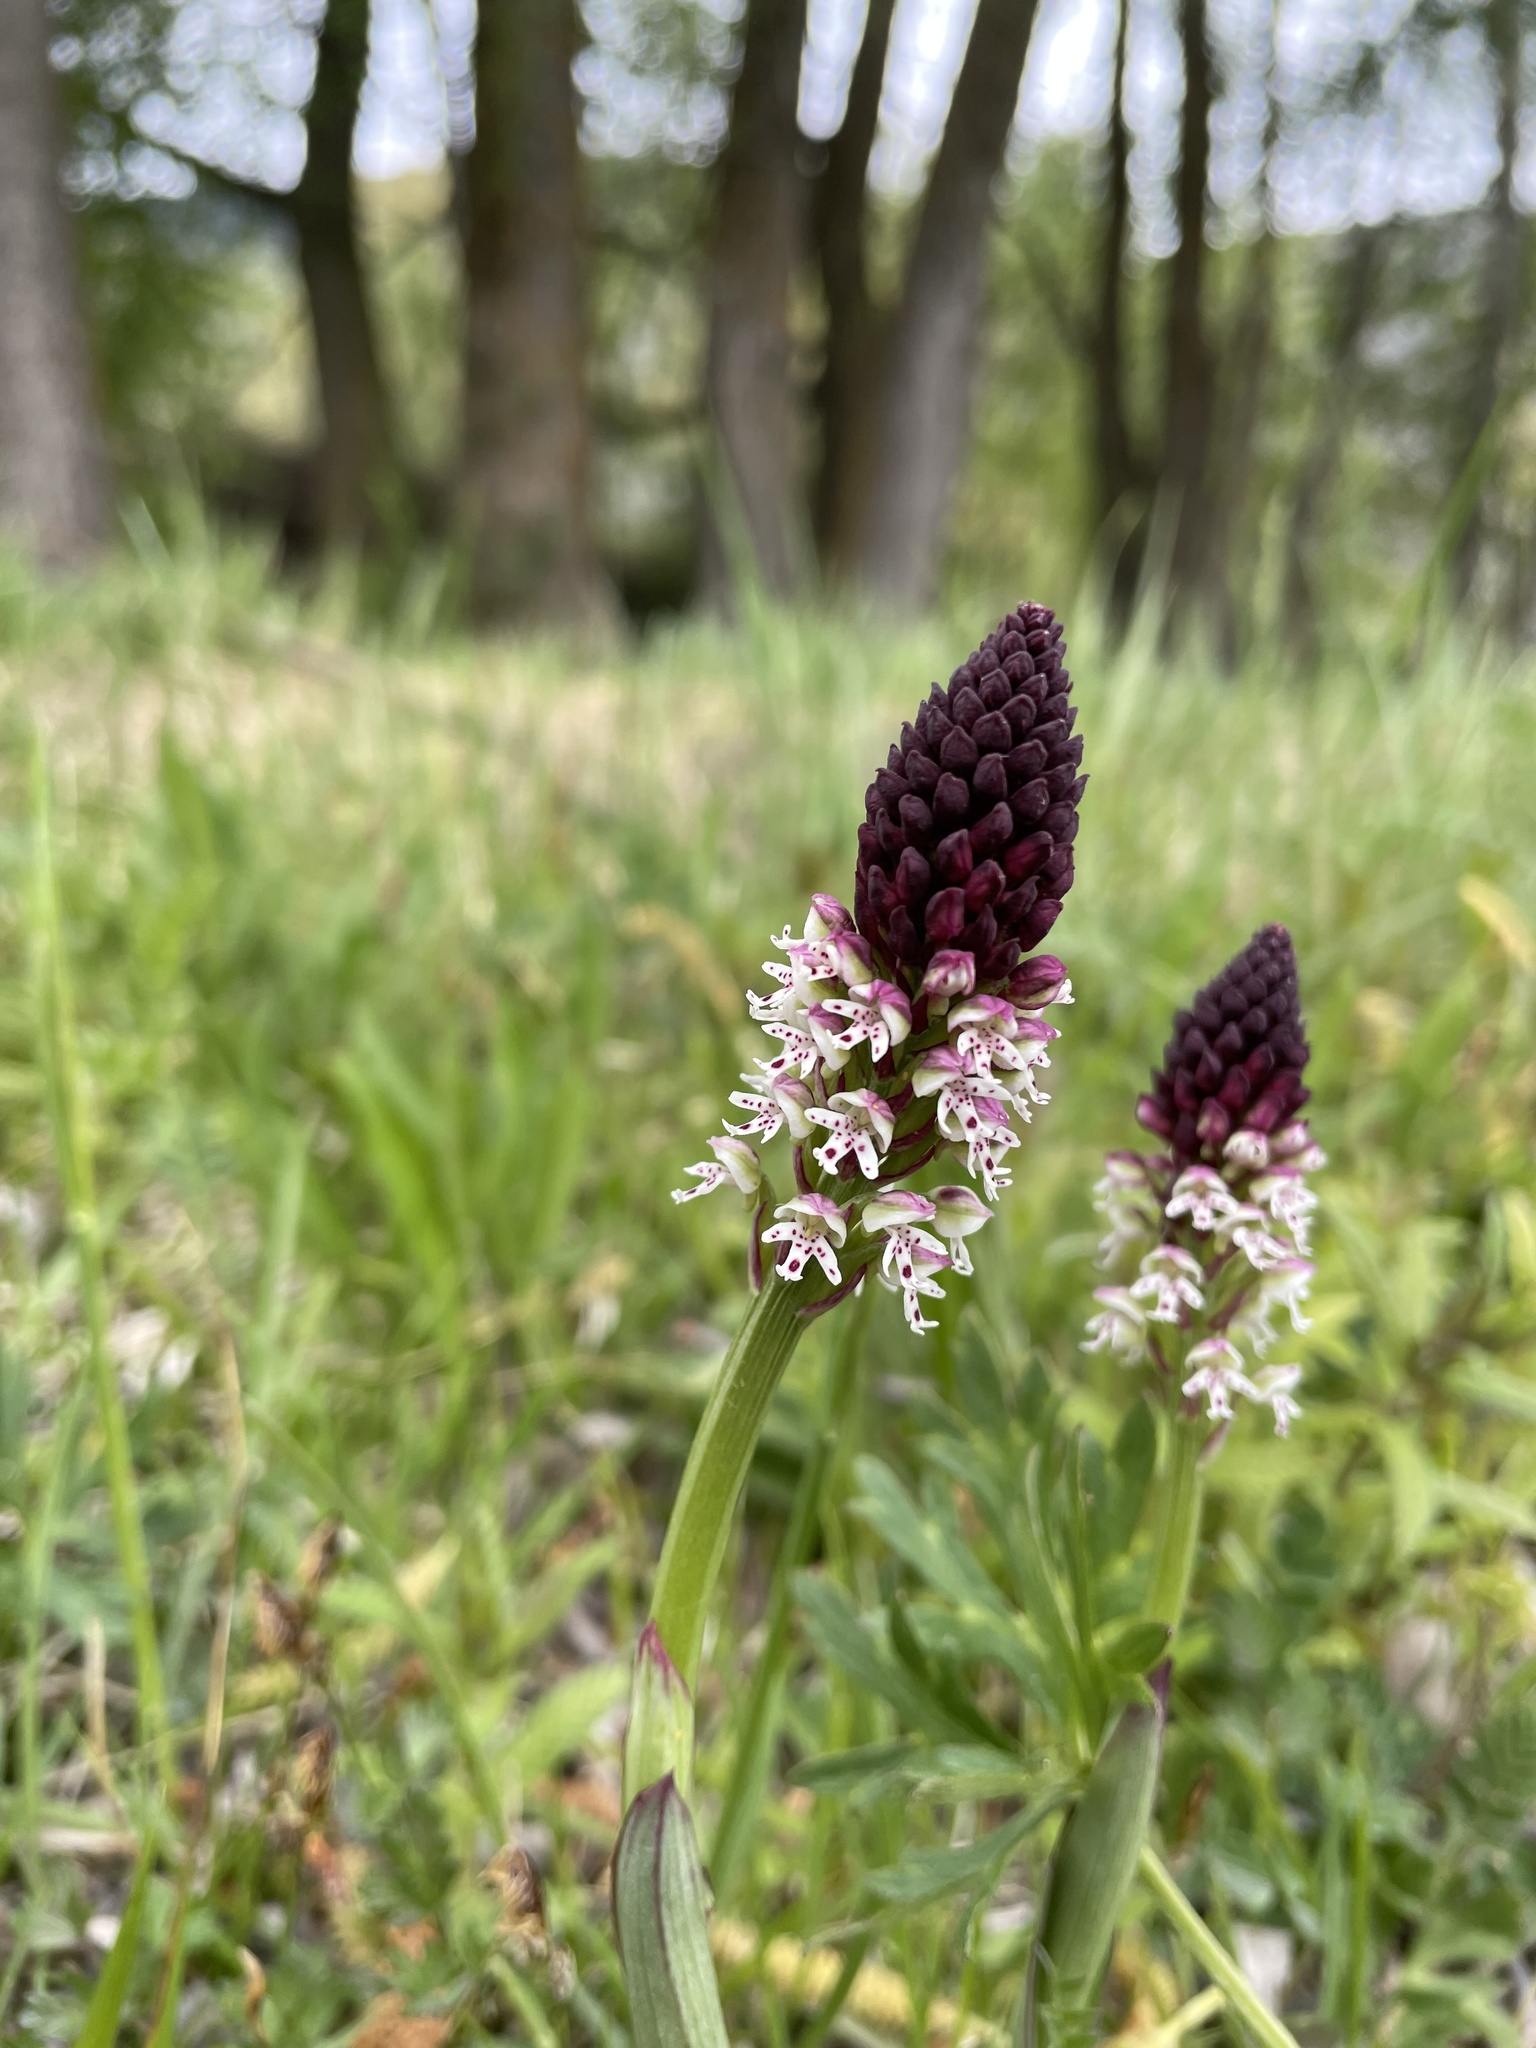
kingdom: Plantae
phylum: Tracheophyta
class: Liliopsida
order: Asparagales
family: Orchidaceae
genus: Neotinea
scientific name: Neotinea ustulata
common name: Burnt orchid
